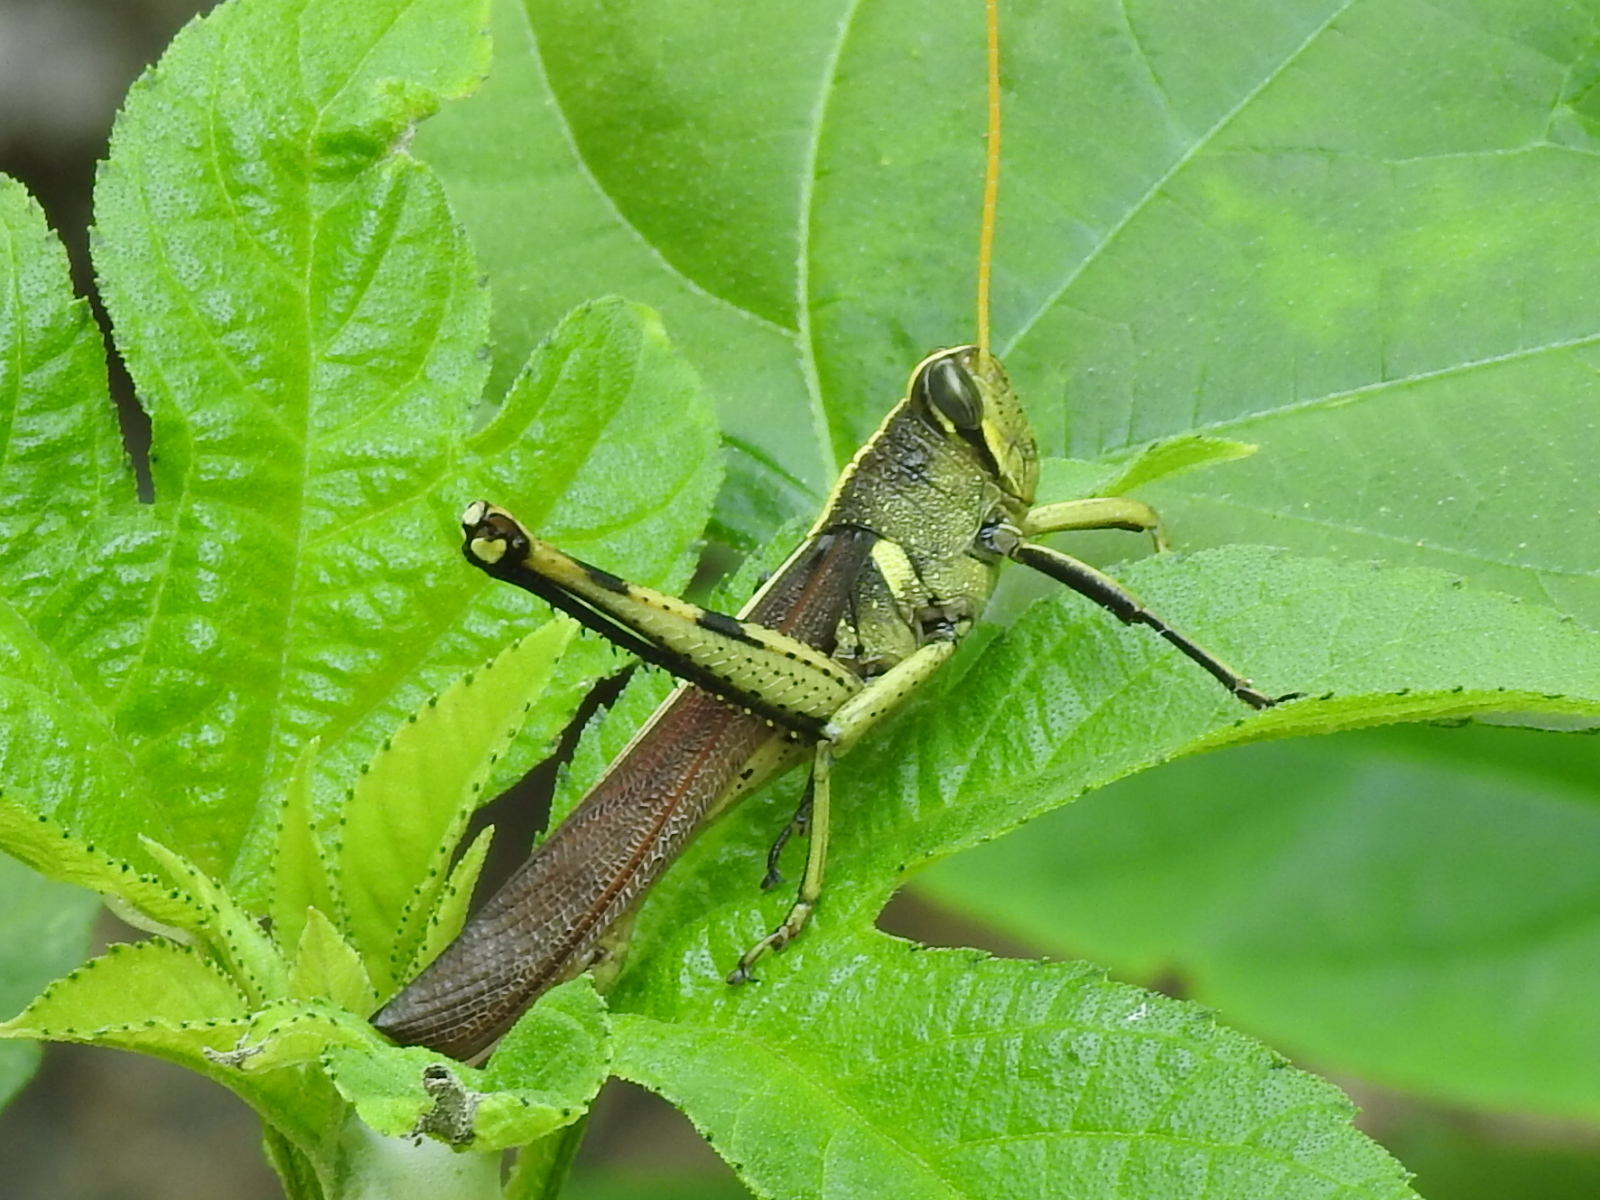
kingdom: Animalia
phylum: Arthropoda
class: Insecta
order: Orthoptera
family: Acrididae
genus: Schistocerca
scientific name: Schistocerca obscura
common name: Obscure bird grasshopper
